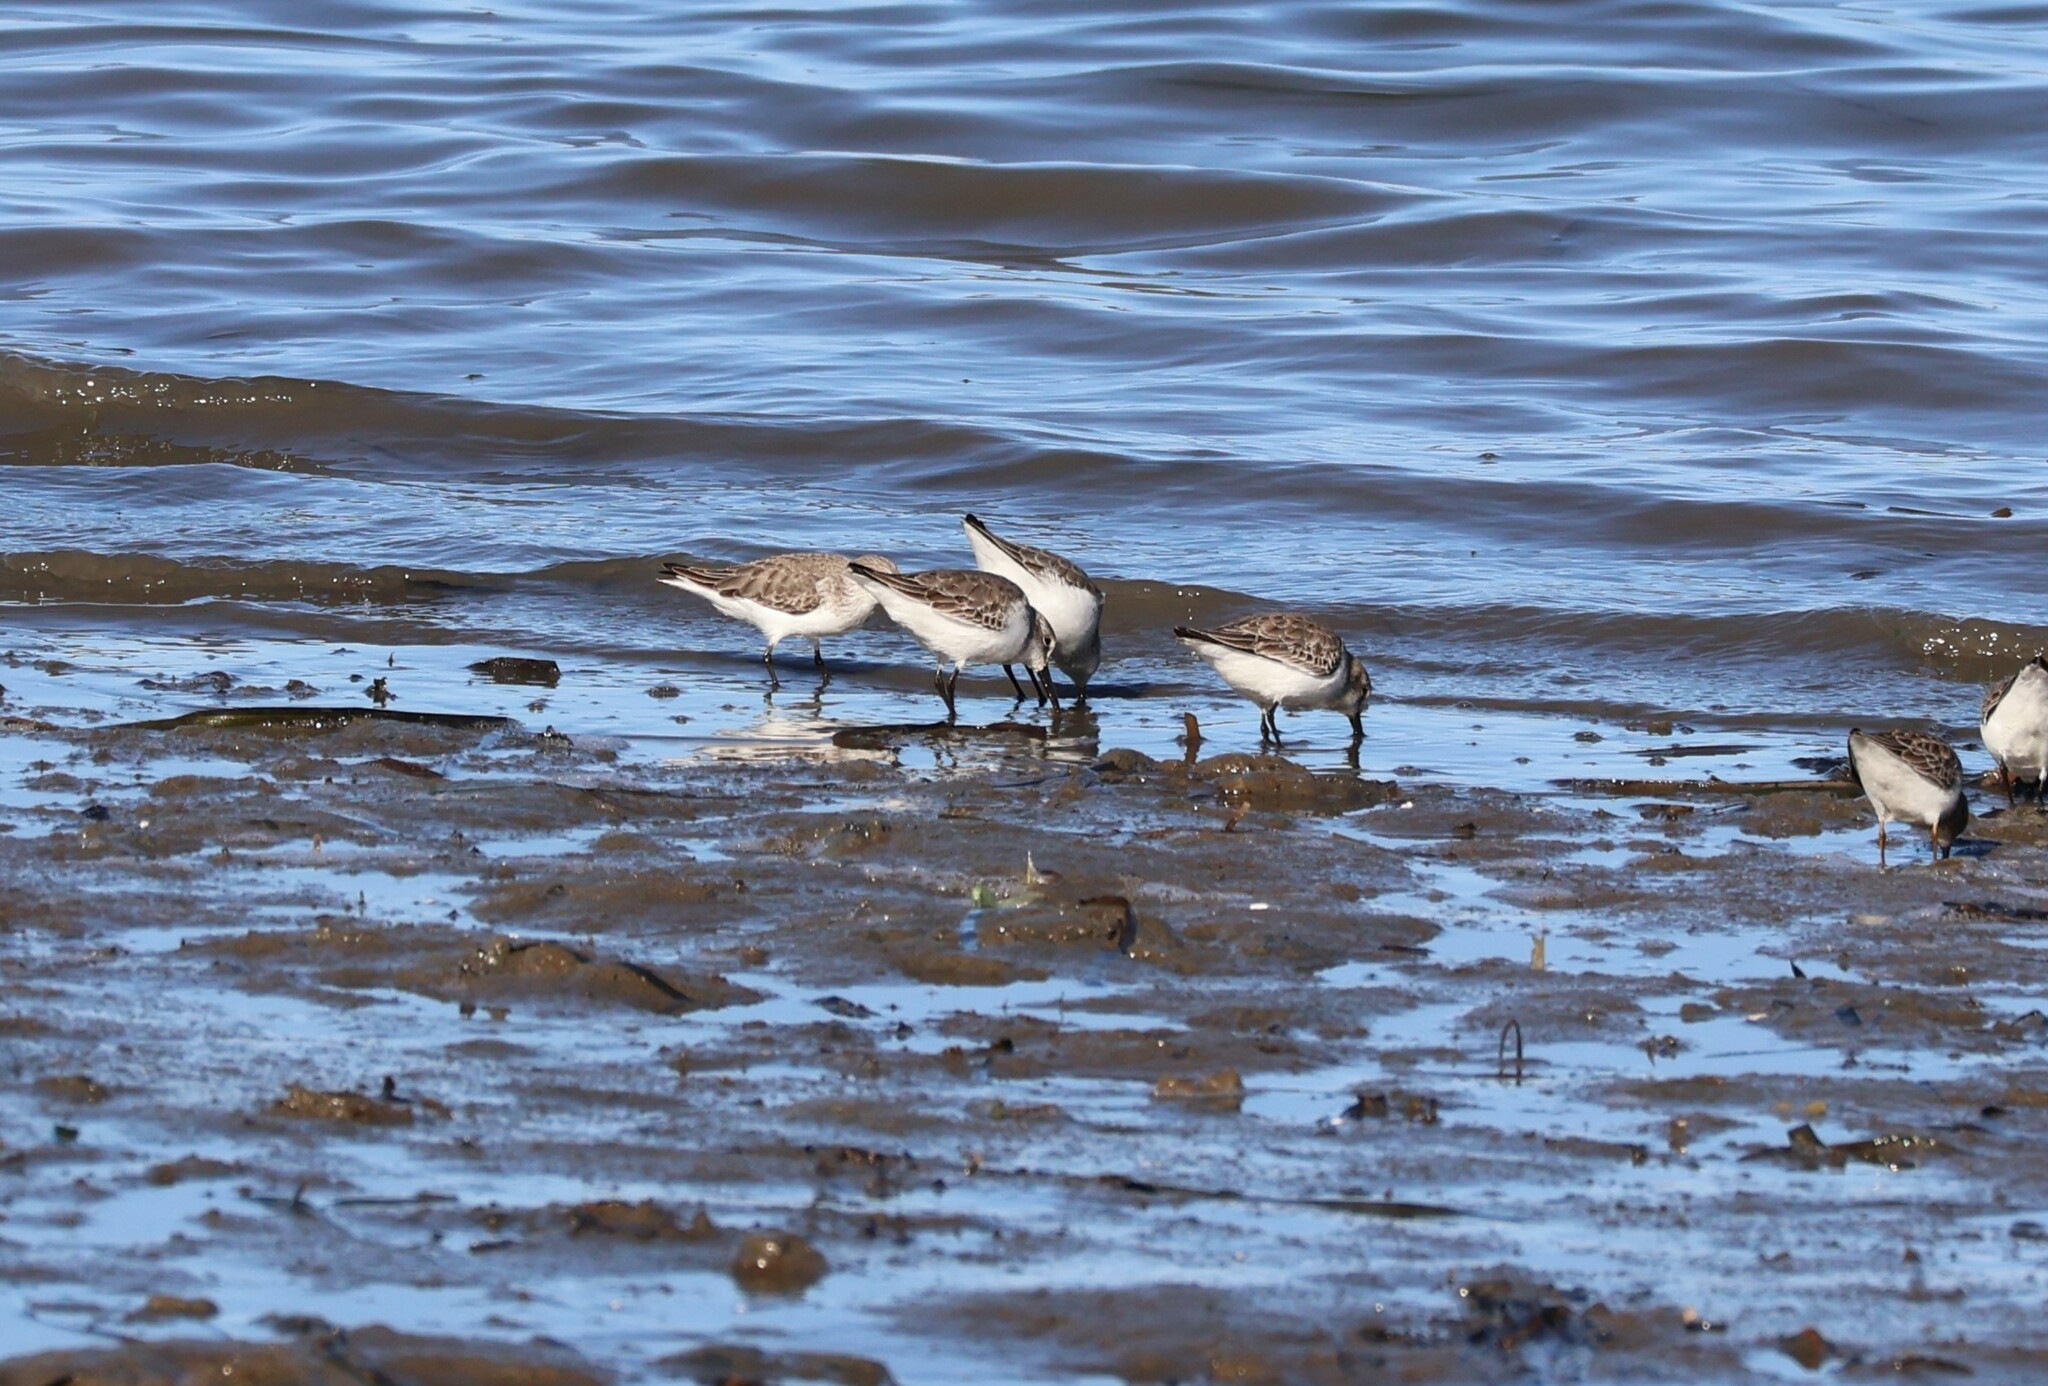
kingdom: Animalia
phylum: Chordata
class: Aves
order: Charadriiformes
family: Scolopacidae
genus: Calidris
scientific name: Calidris mauri
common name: Western sandpiper
